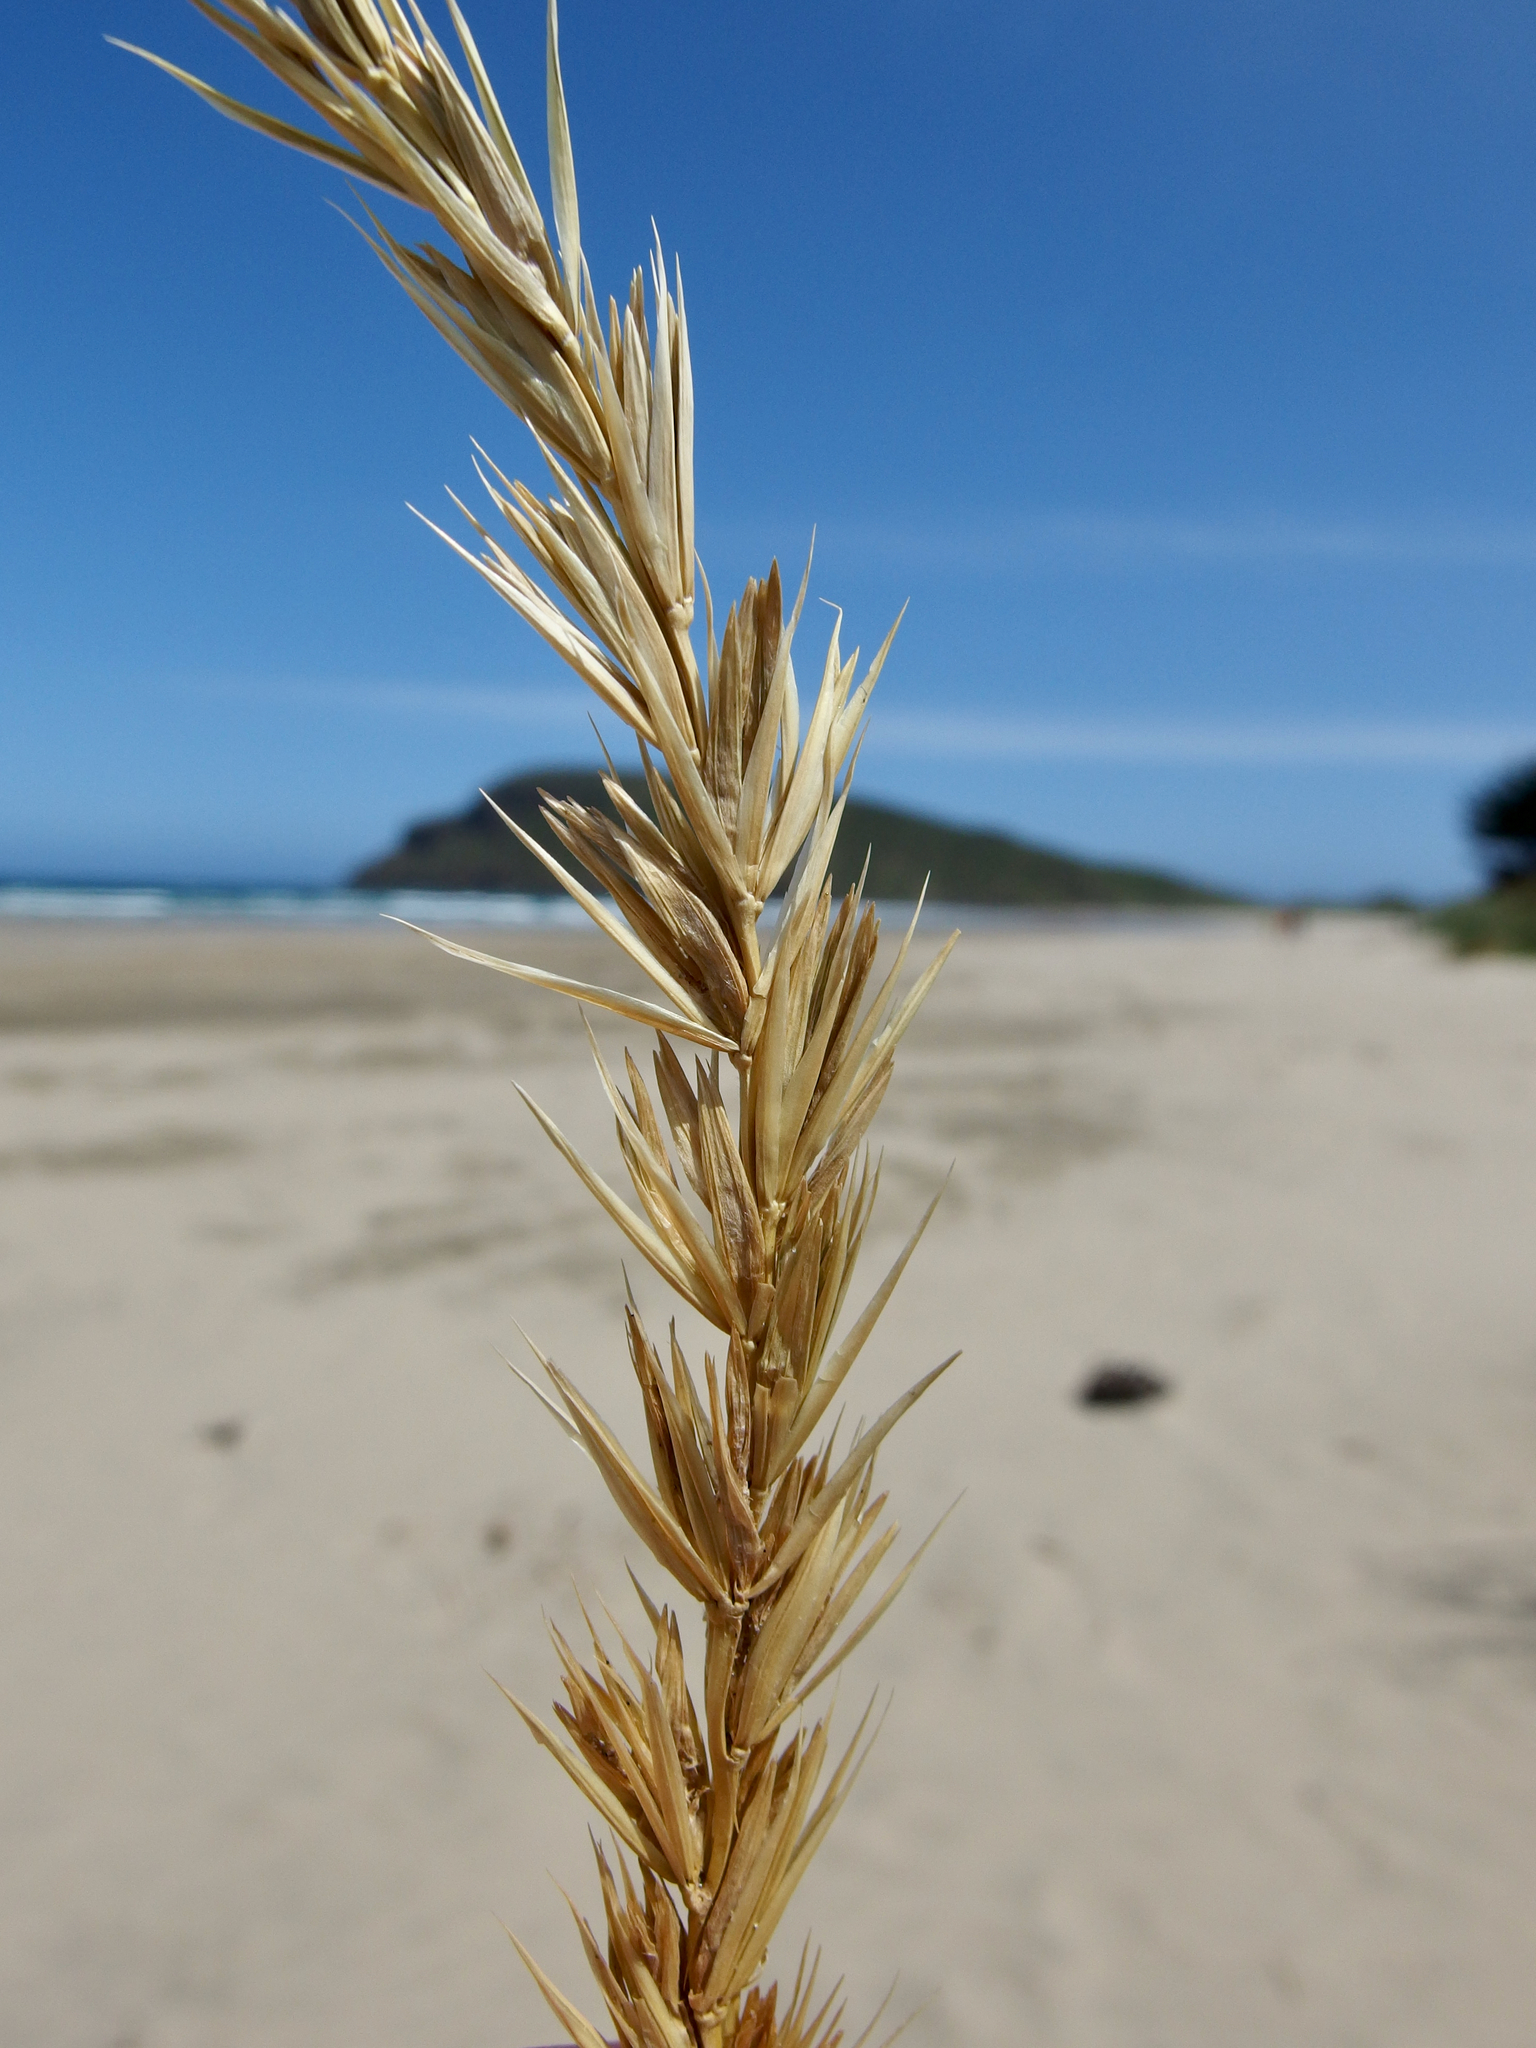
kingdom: Plantae
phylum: Tracheophyta
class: Liliopsida
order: Poales
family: Poaceae
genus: Leymus
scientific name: Leymus racemosus
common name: Mammoth wildrye
